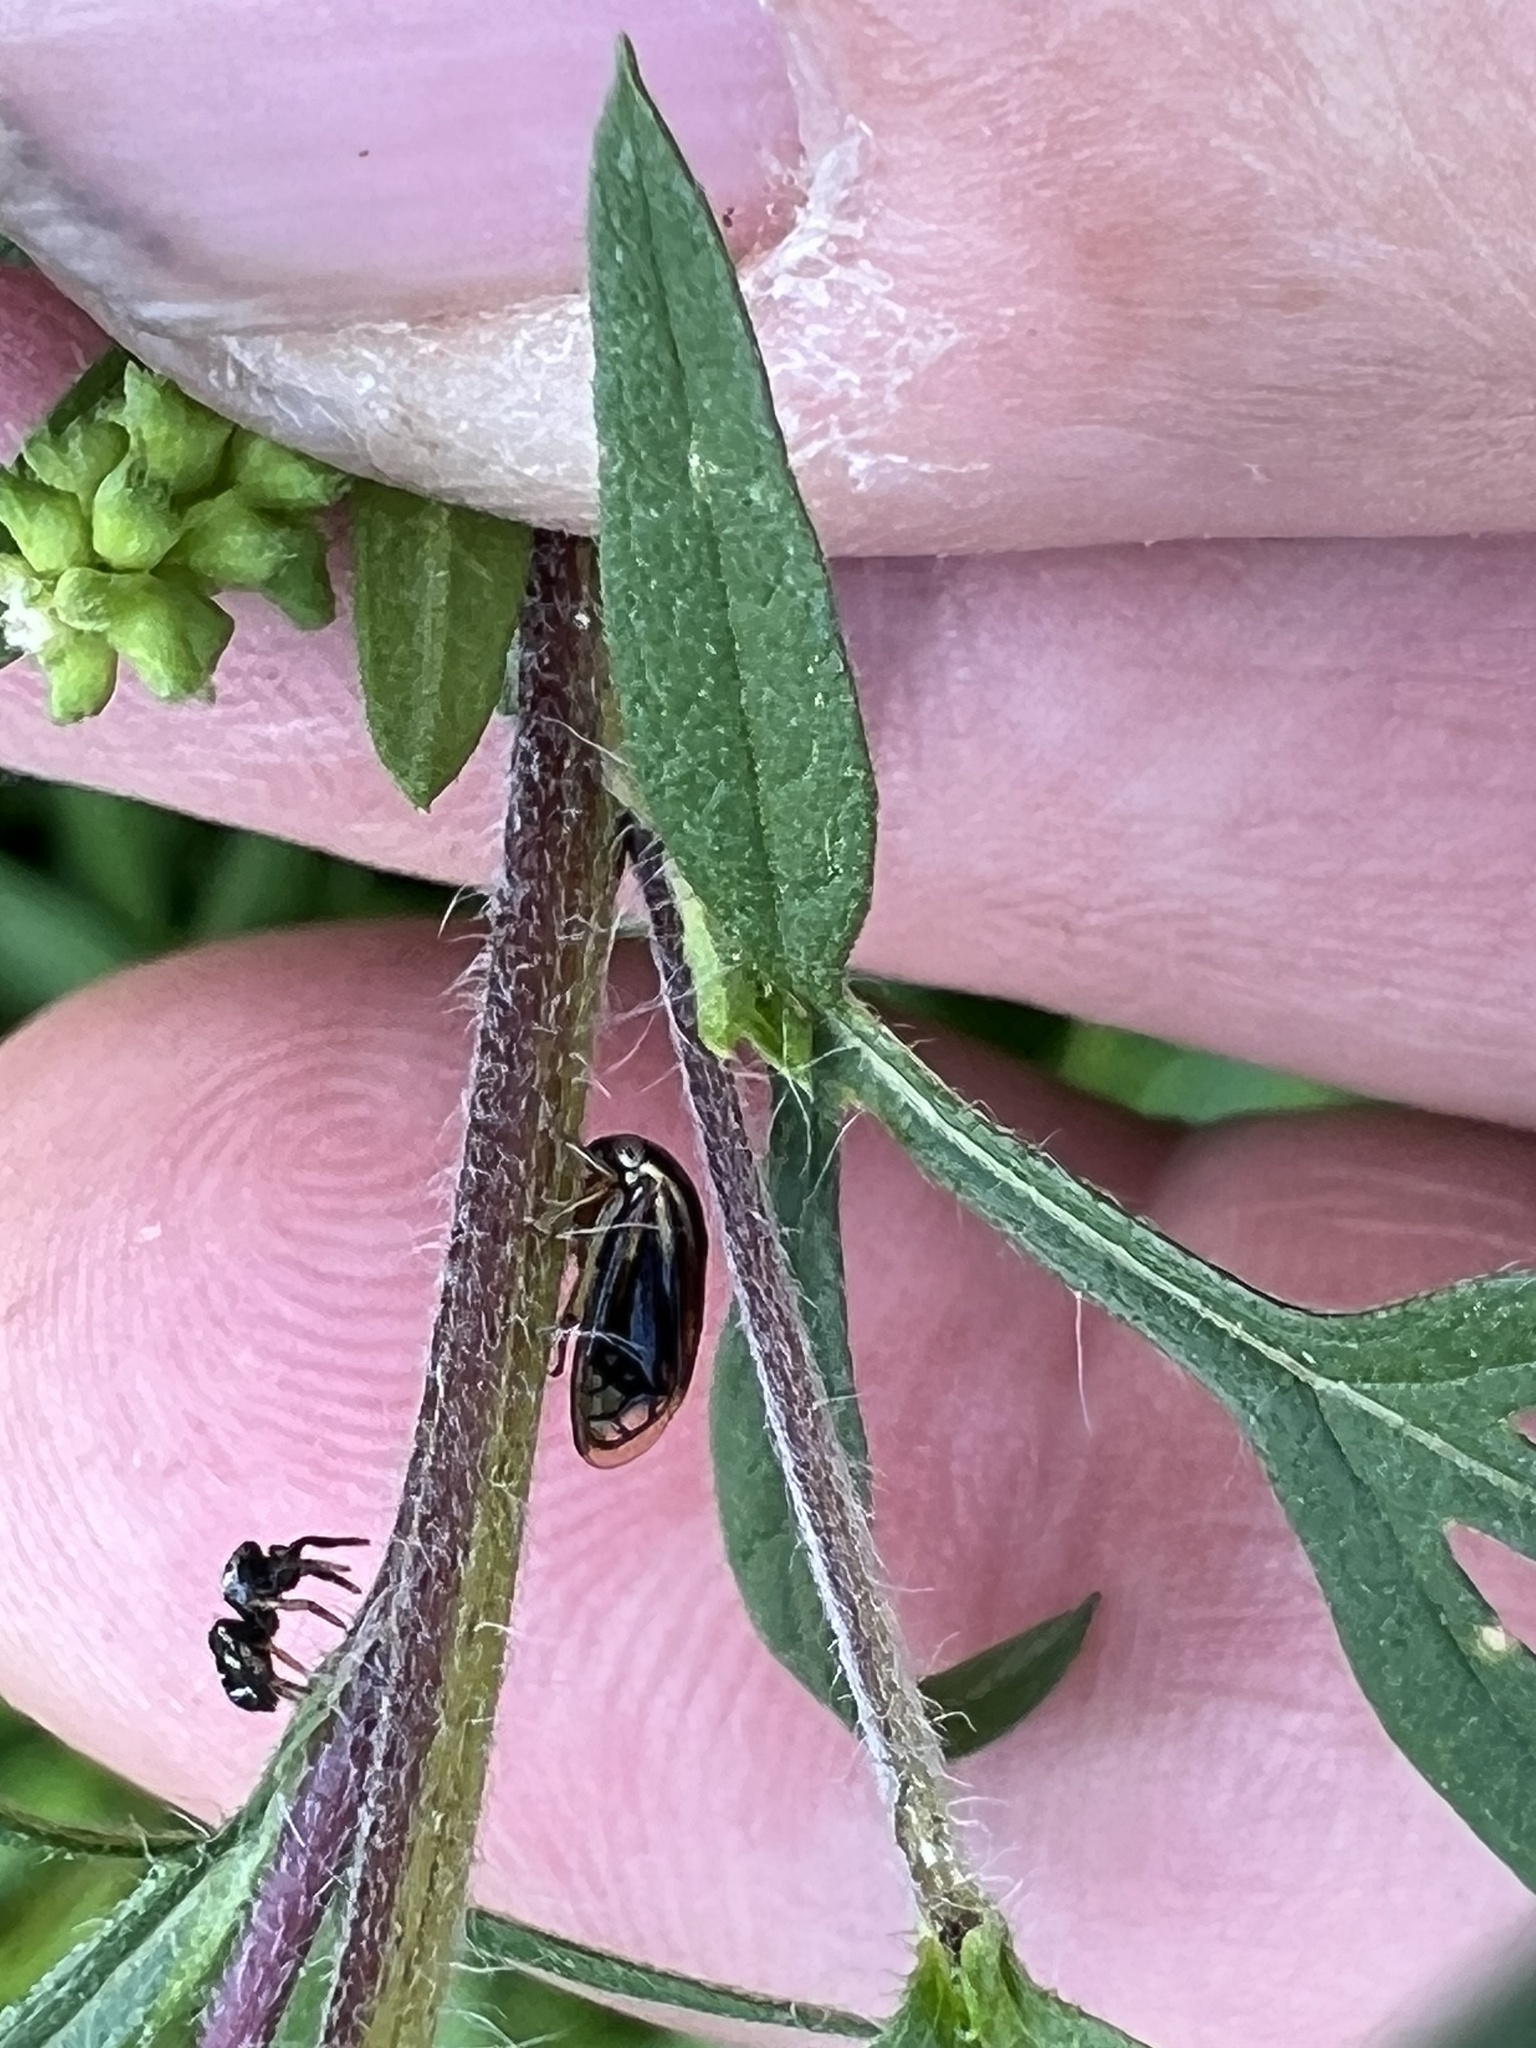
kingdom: Animalia
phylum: Arthropoda
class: Insecta
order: Hemiptera
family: Membracidae
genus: Acutalis
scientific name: Acutalis tartarea
